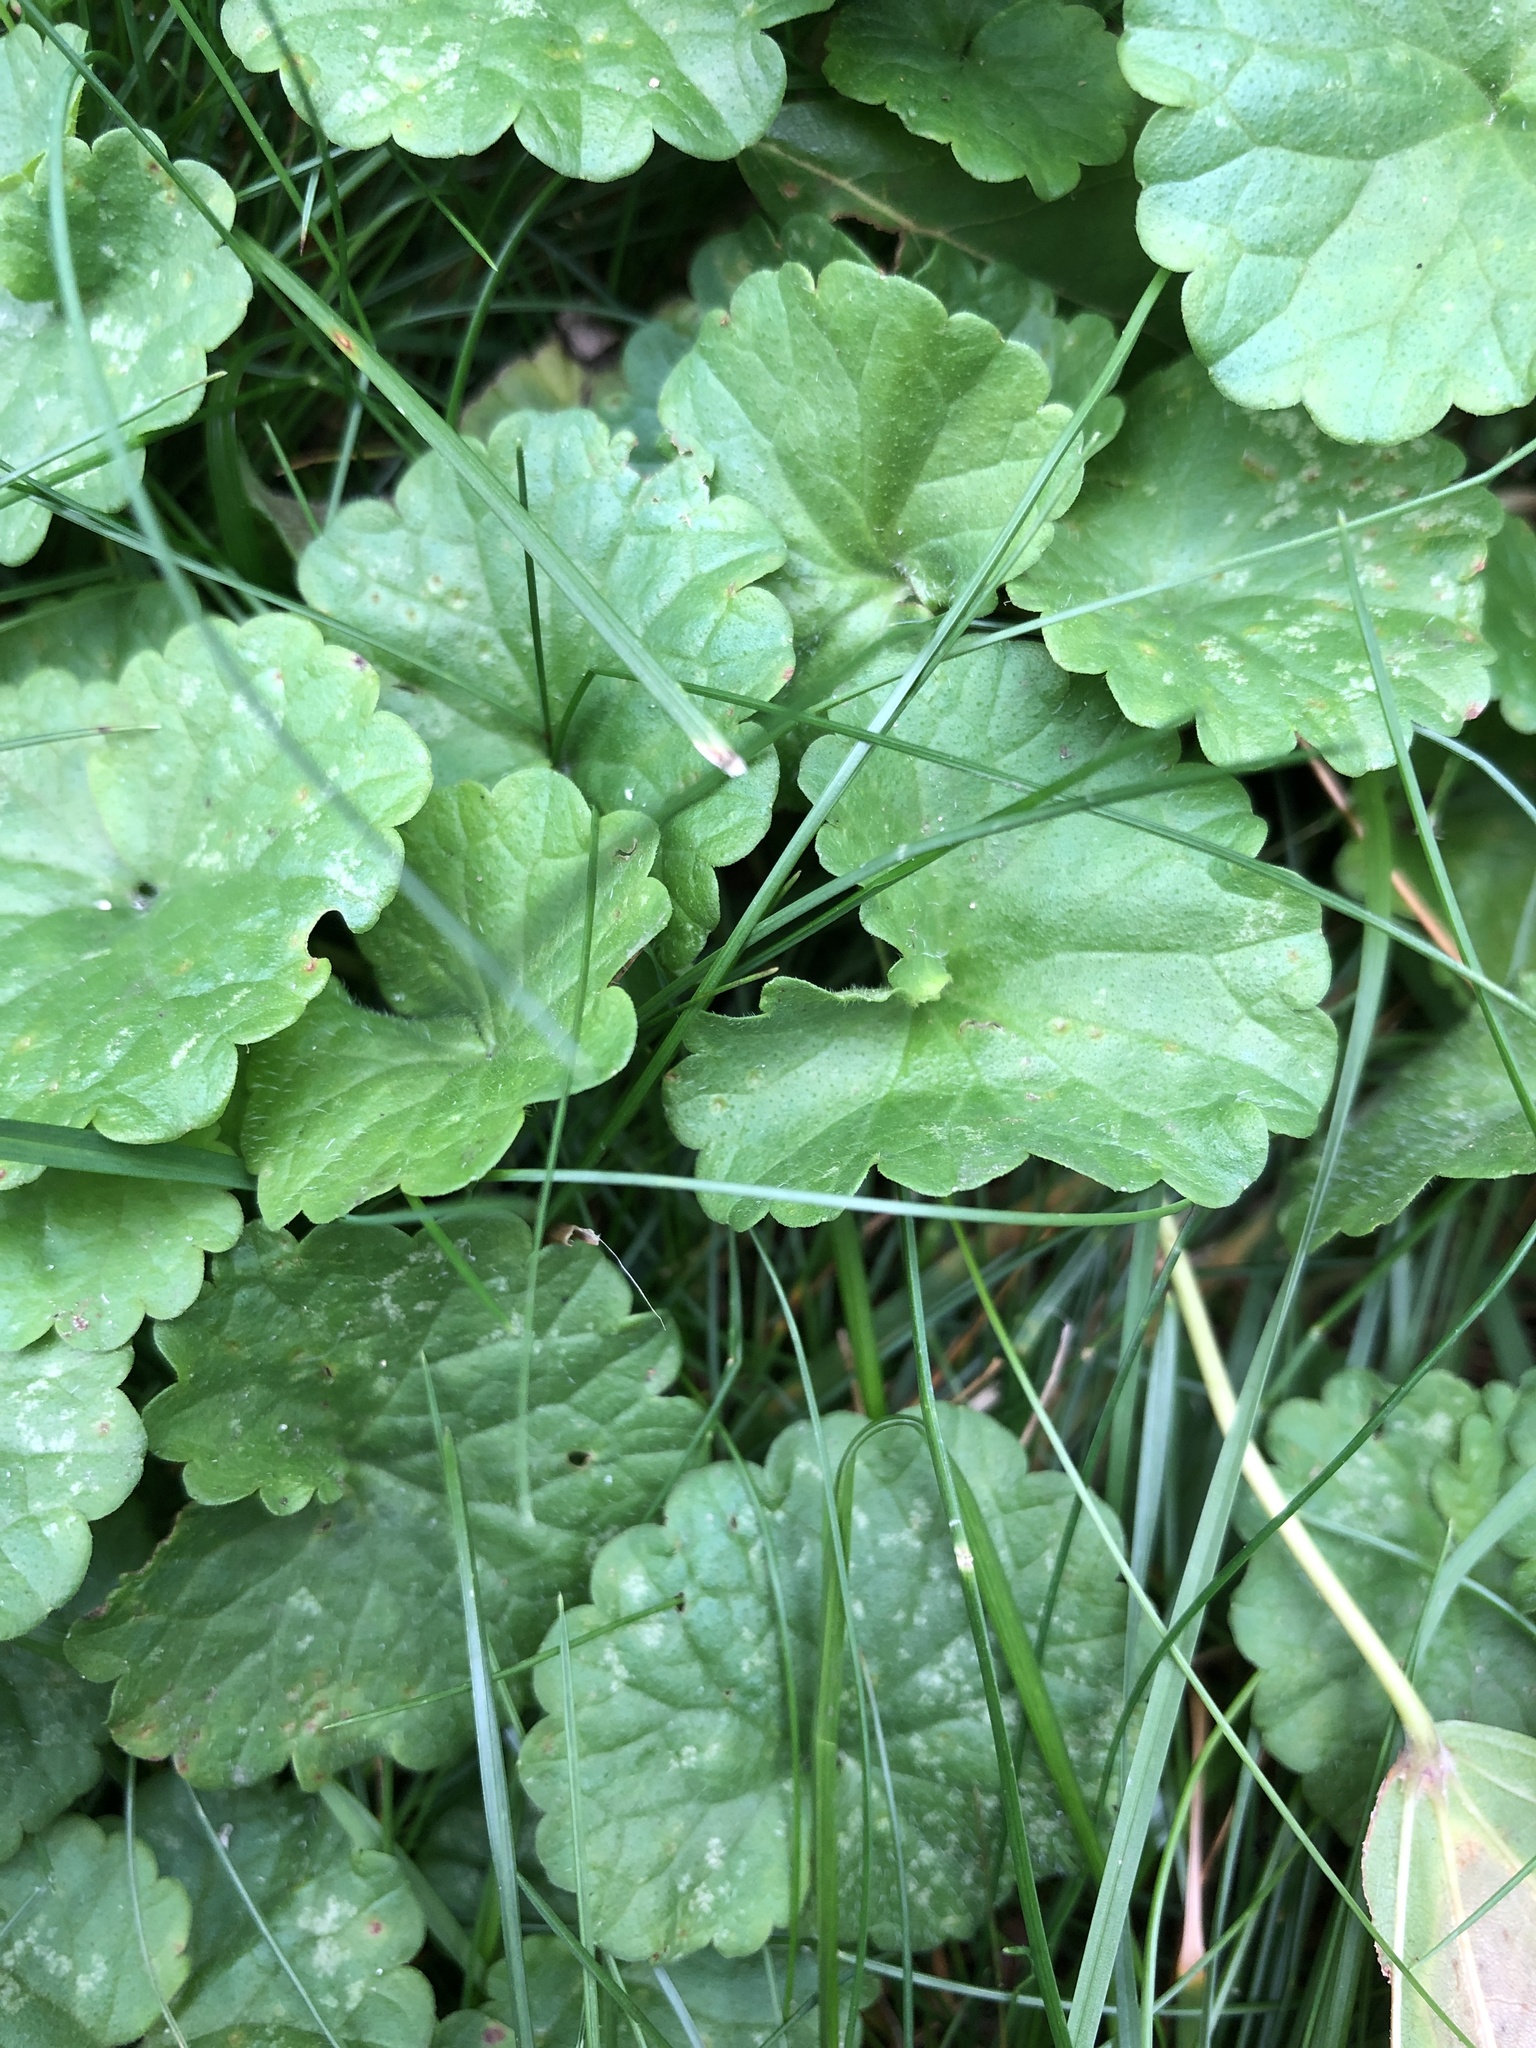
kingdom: Plantae
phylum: Tracheophyta
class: Magnoliopsida
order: Lamiales
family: Lamiaceae
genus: Glechoma
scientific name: Glechoma hederacea
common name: Ground ivy
